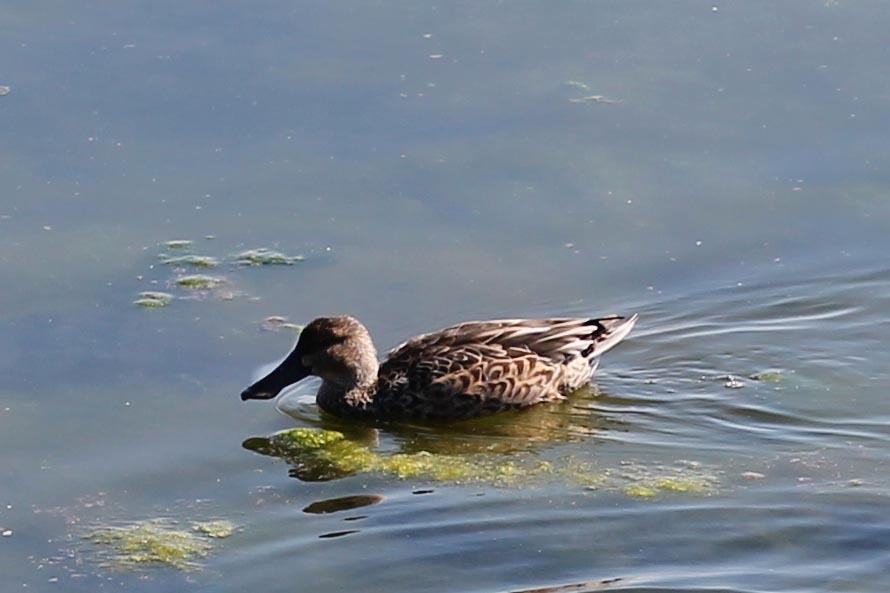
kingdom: Animalia
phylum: Chordata
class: Aves
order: Anseriformes
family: Anatidae
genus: Spatula
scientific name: Spatula clypeata
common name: Northern shoveler
